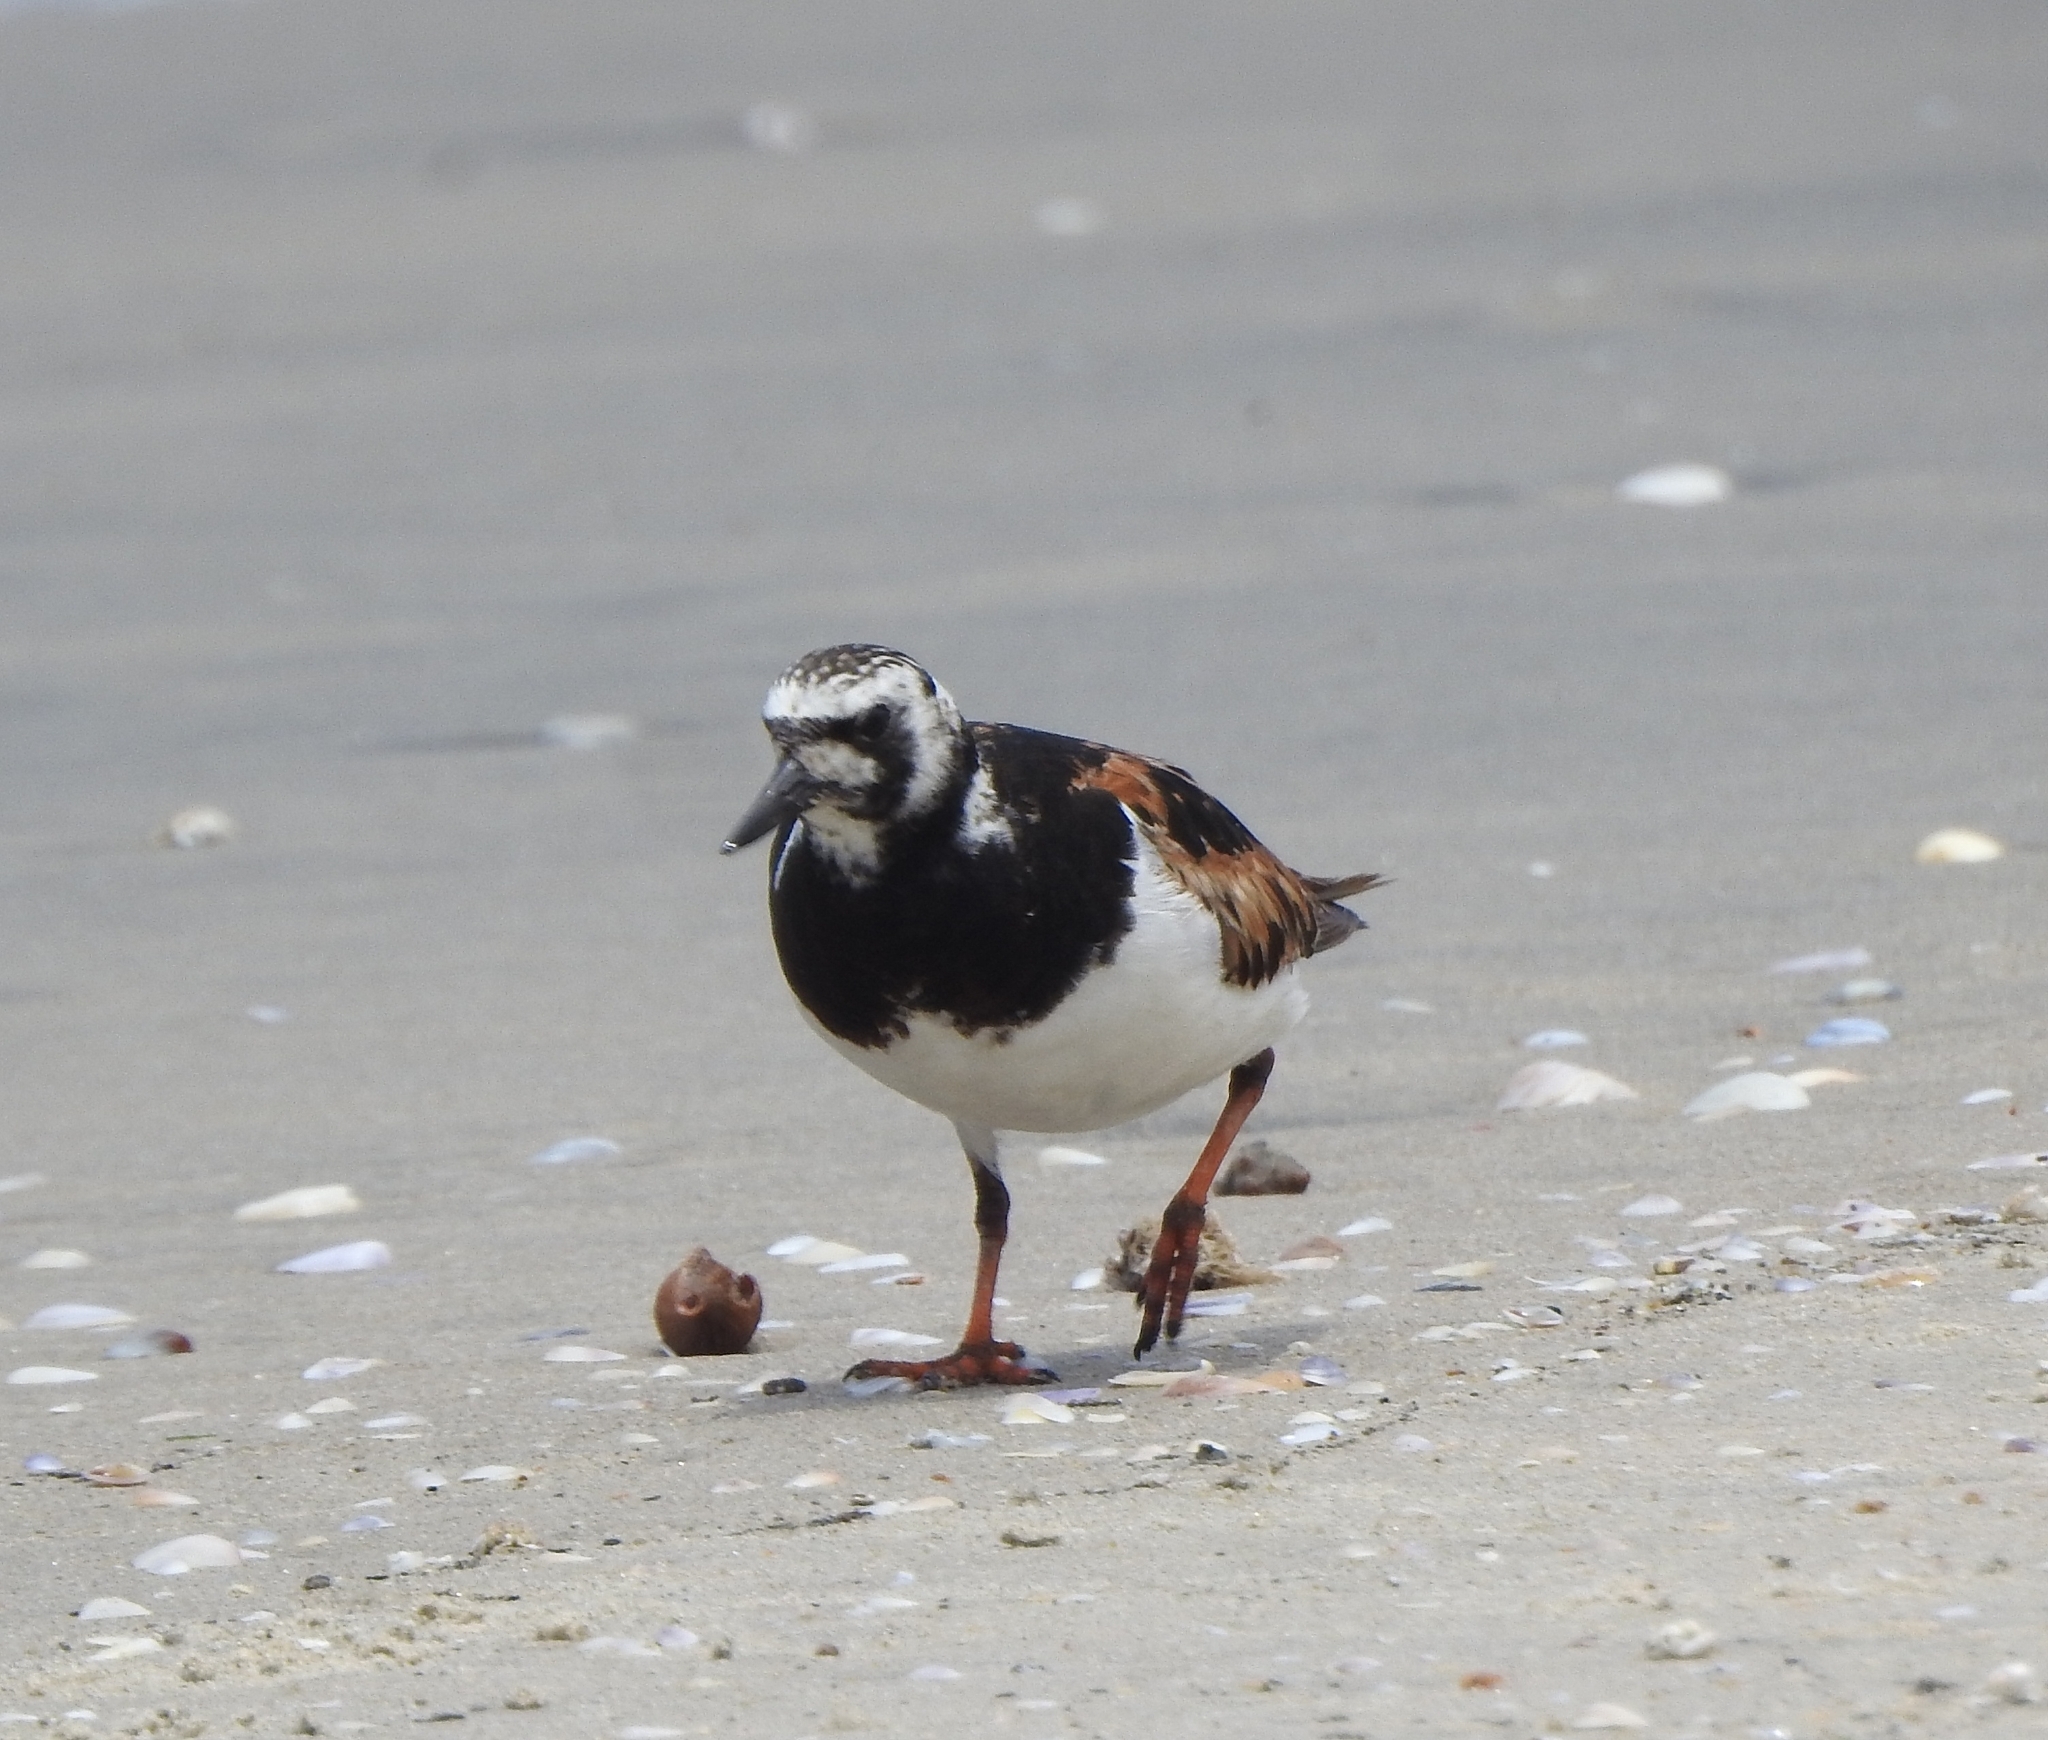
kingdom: Animalia
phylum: Chordata
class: Aves
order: Charadriiformes
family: Scolopacidae
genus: Arenaria
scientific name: Arenaria interpres
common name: Ruddy turnstone
